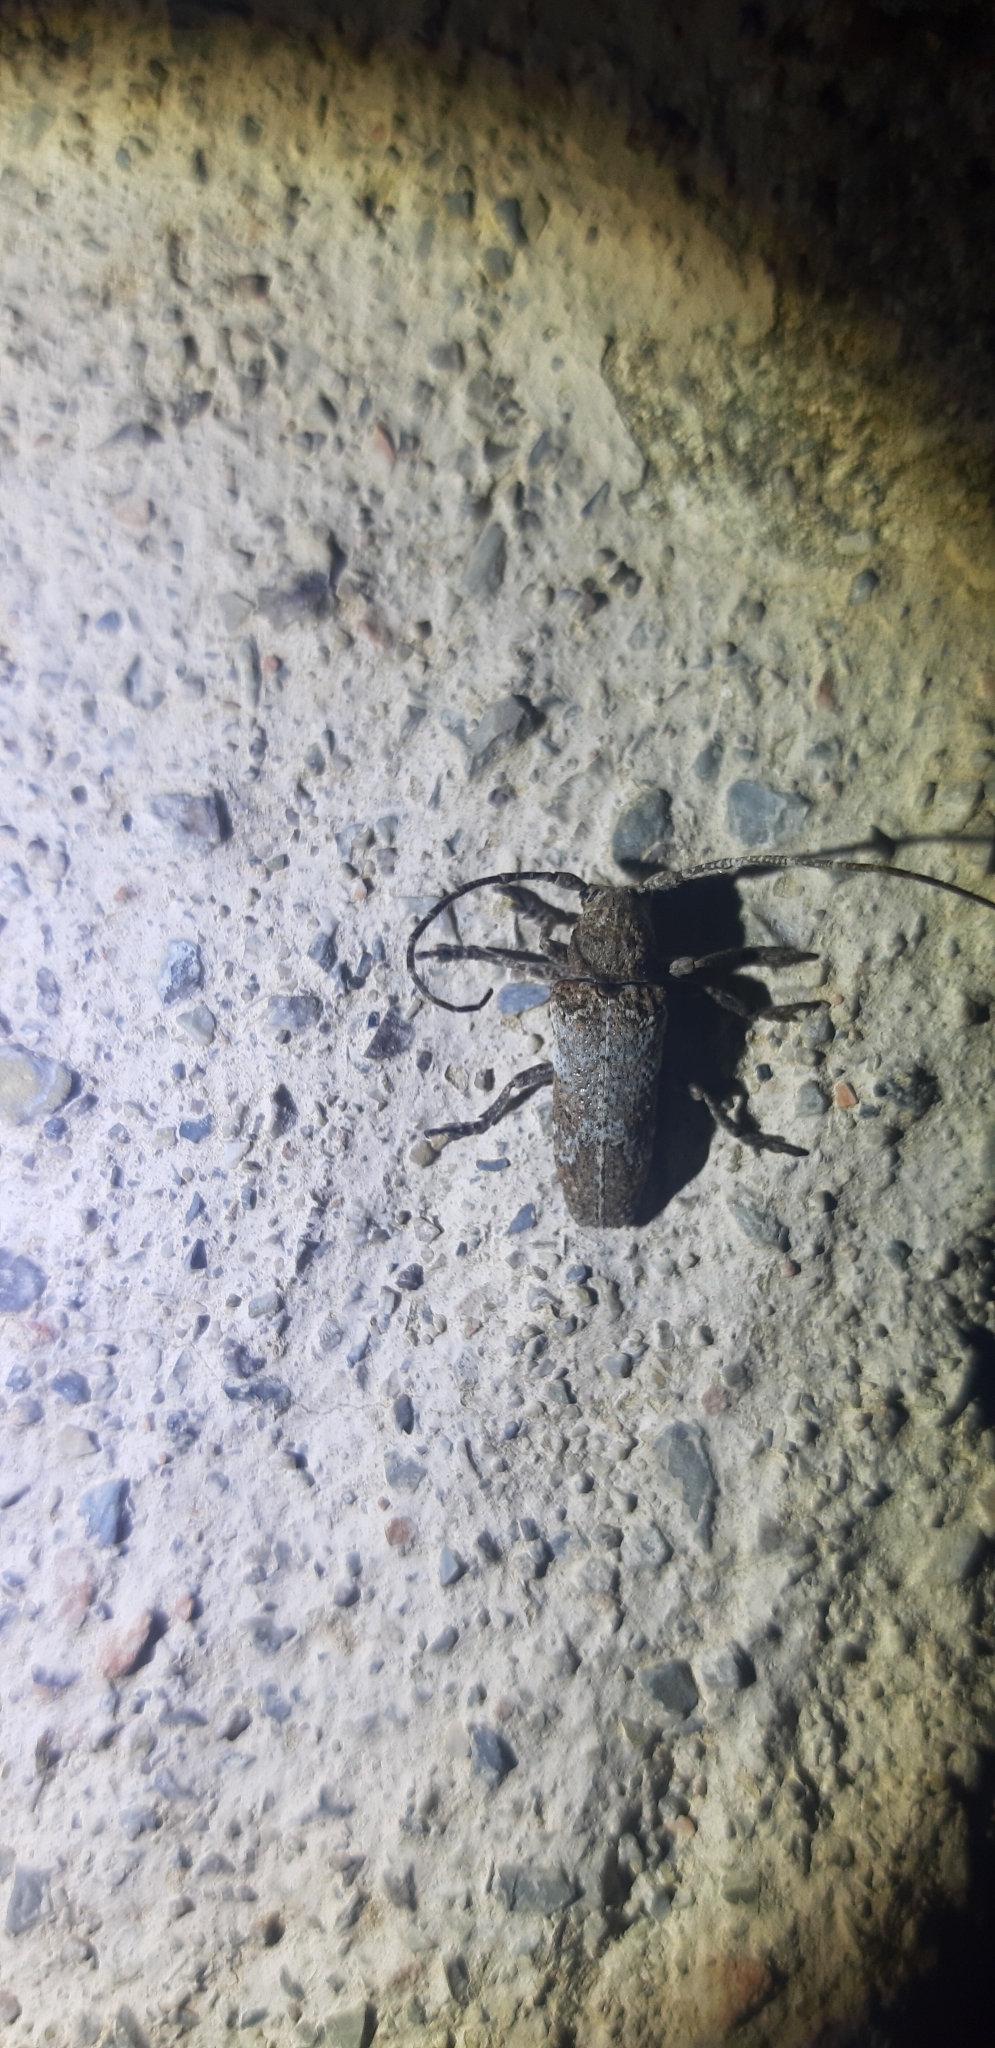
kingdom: Animalia
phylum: Arthropoda
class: Insecta
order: Coleoptera
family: Cerambycidae
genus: Niphona
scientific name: Niphona picticornis
